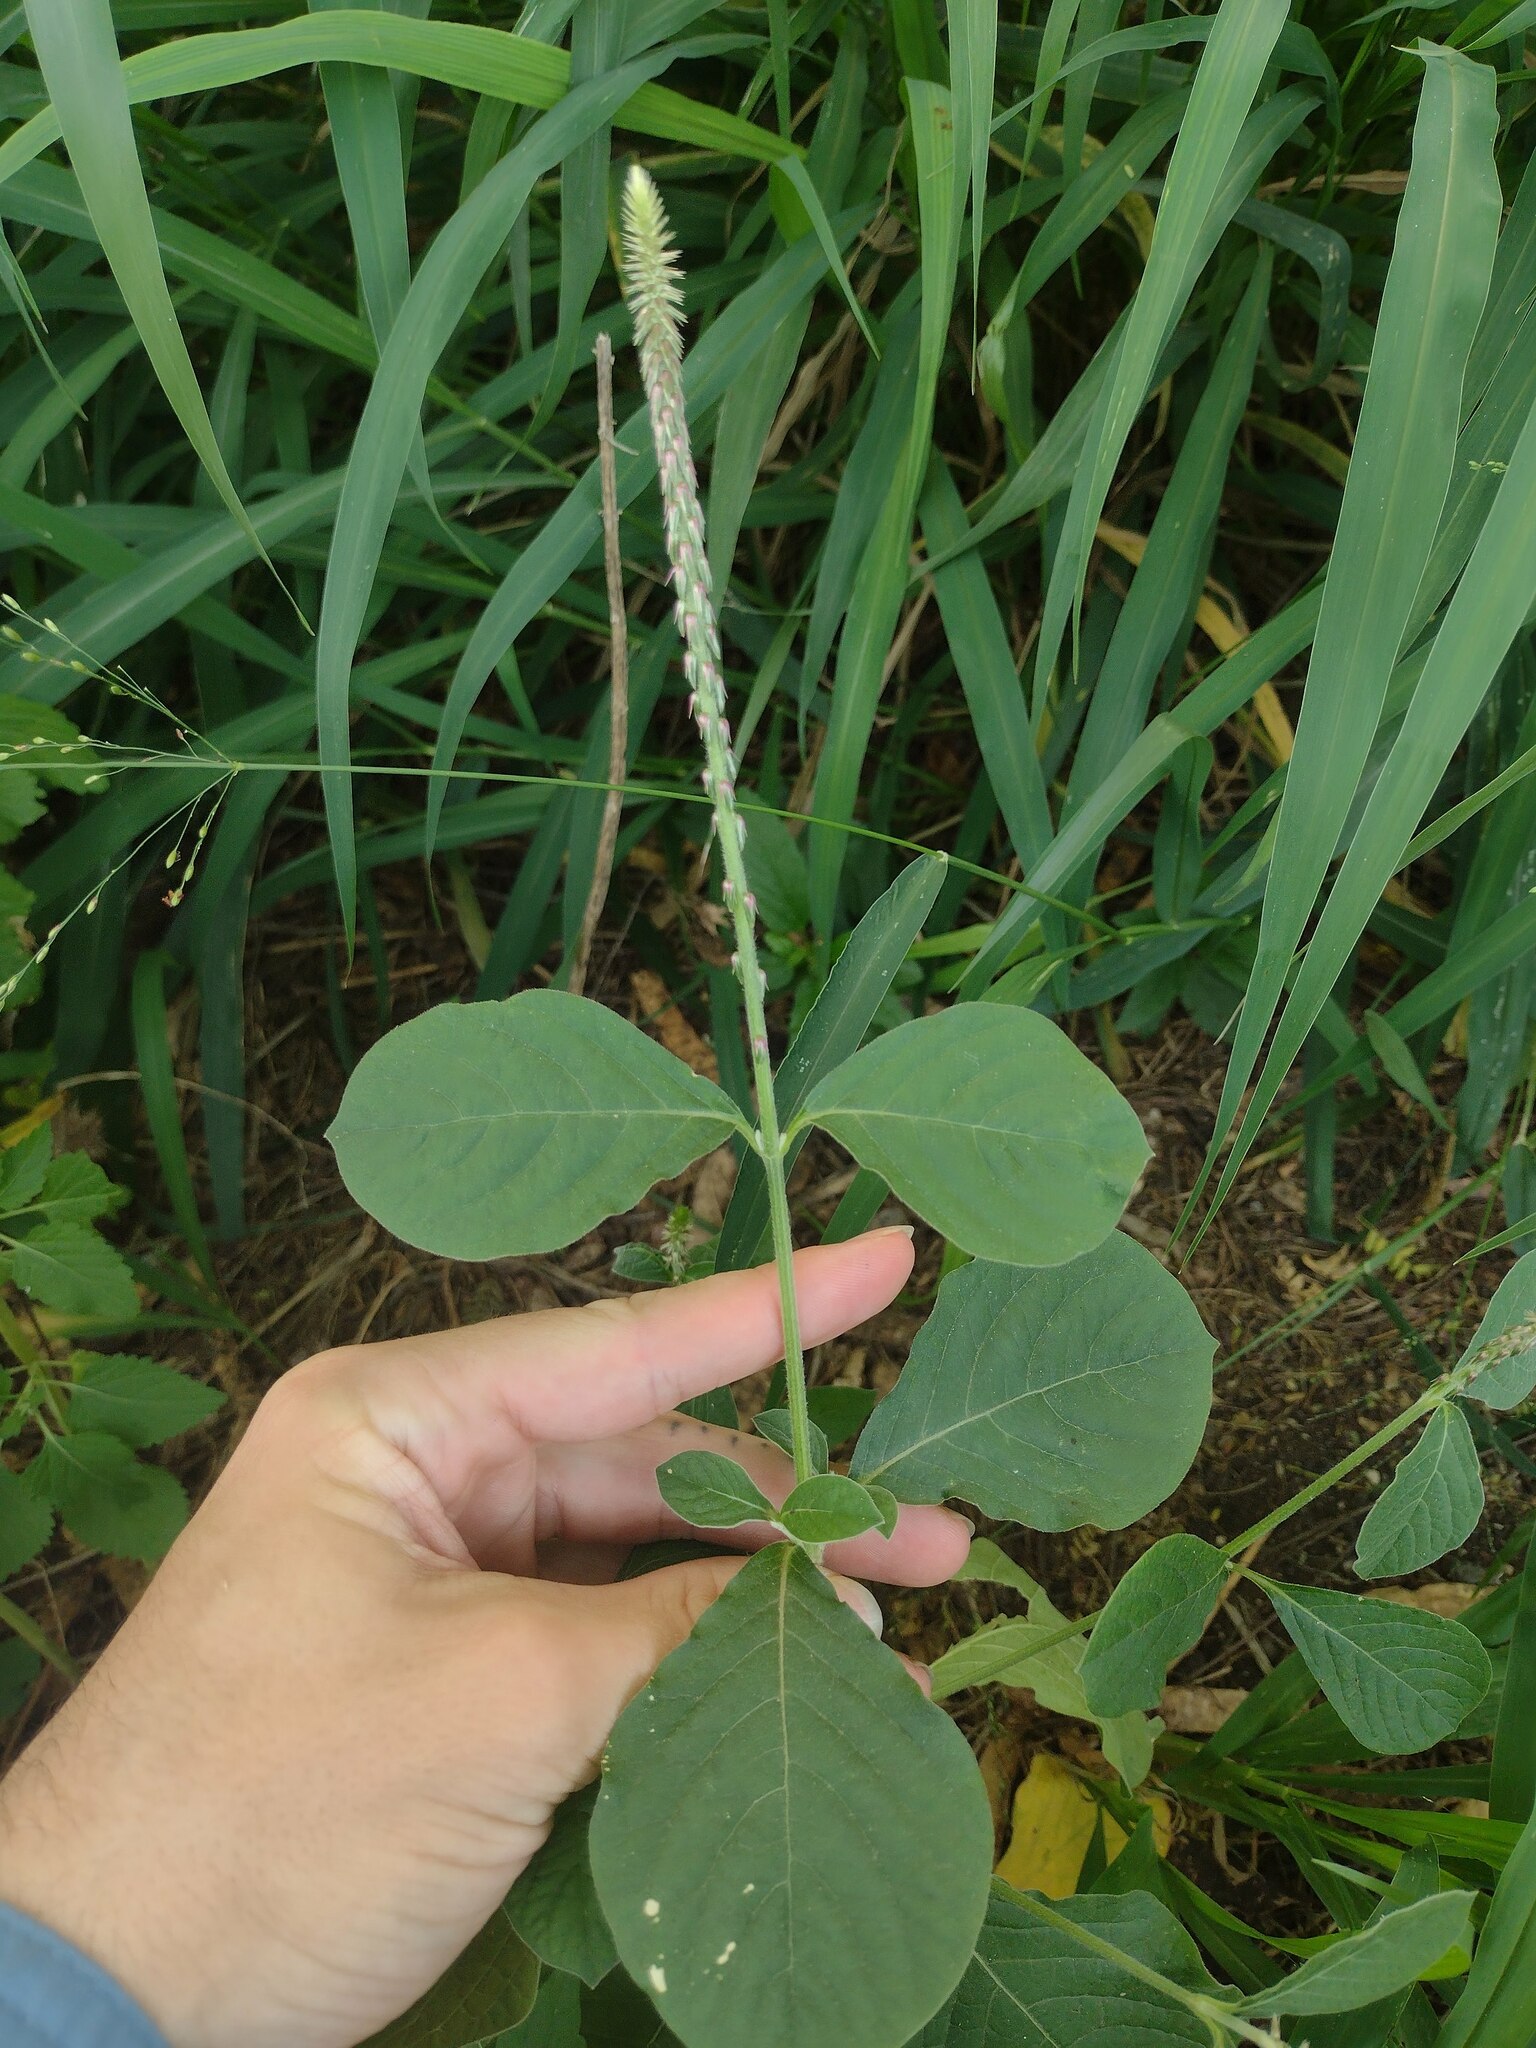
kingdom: Plantae
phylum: Tracheophyta
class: Magnoliopsida
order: Caryophyllales
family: Amaranthaceae
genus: Achyranthes
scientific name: Achyranthes aspera
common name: Devil's horsewhip
